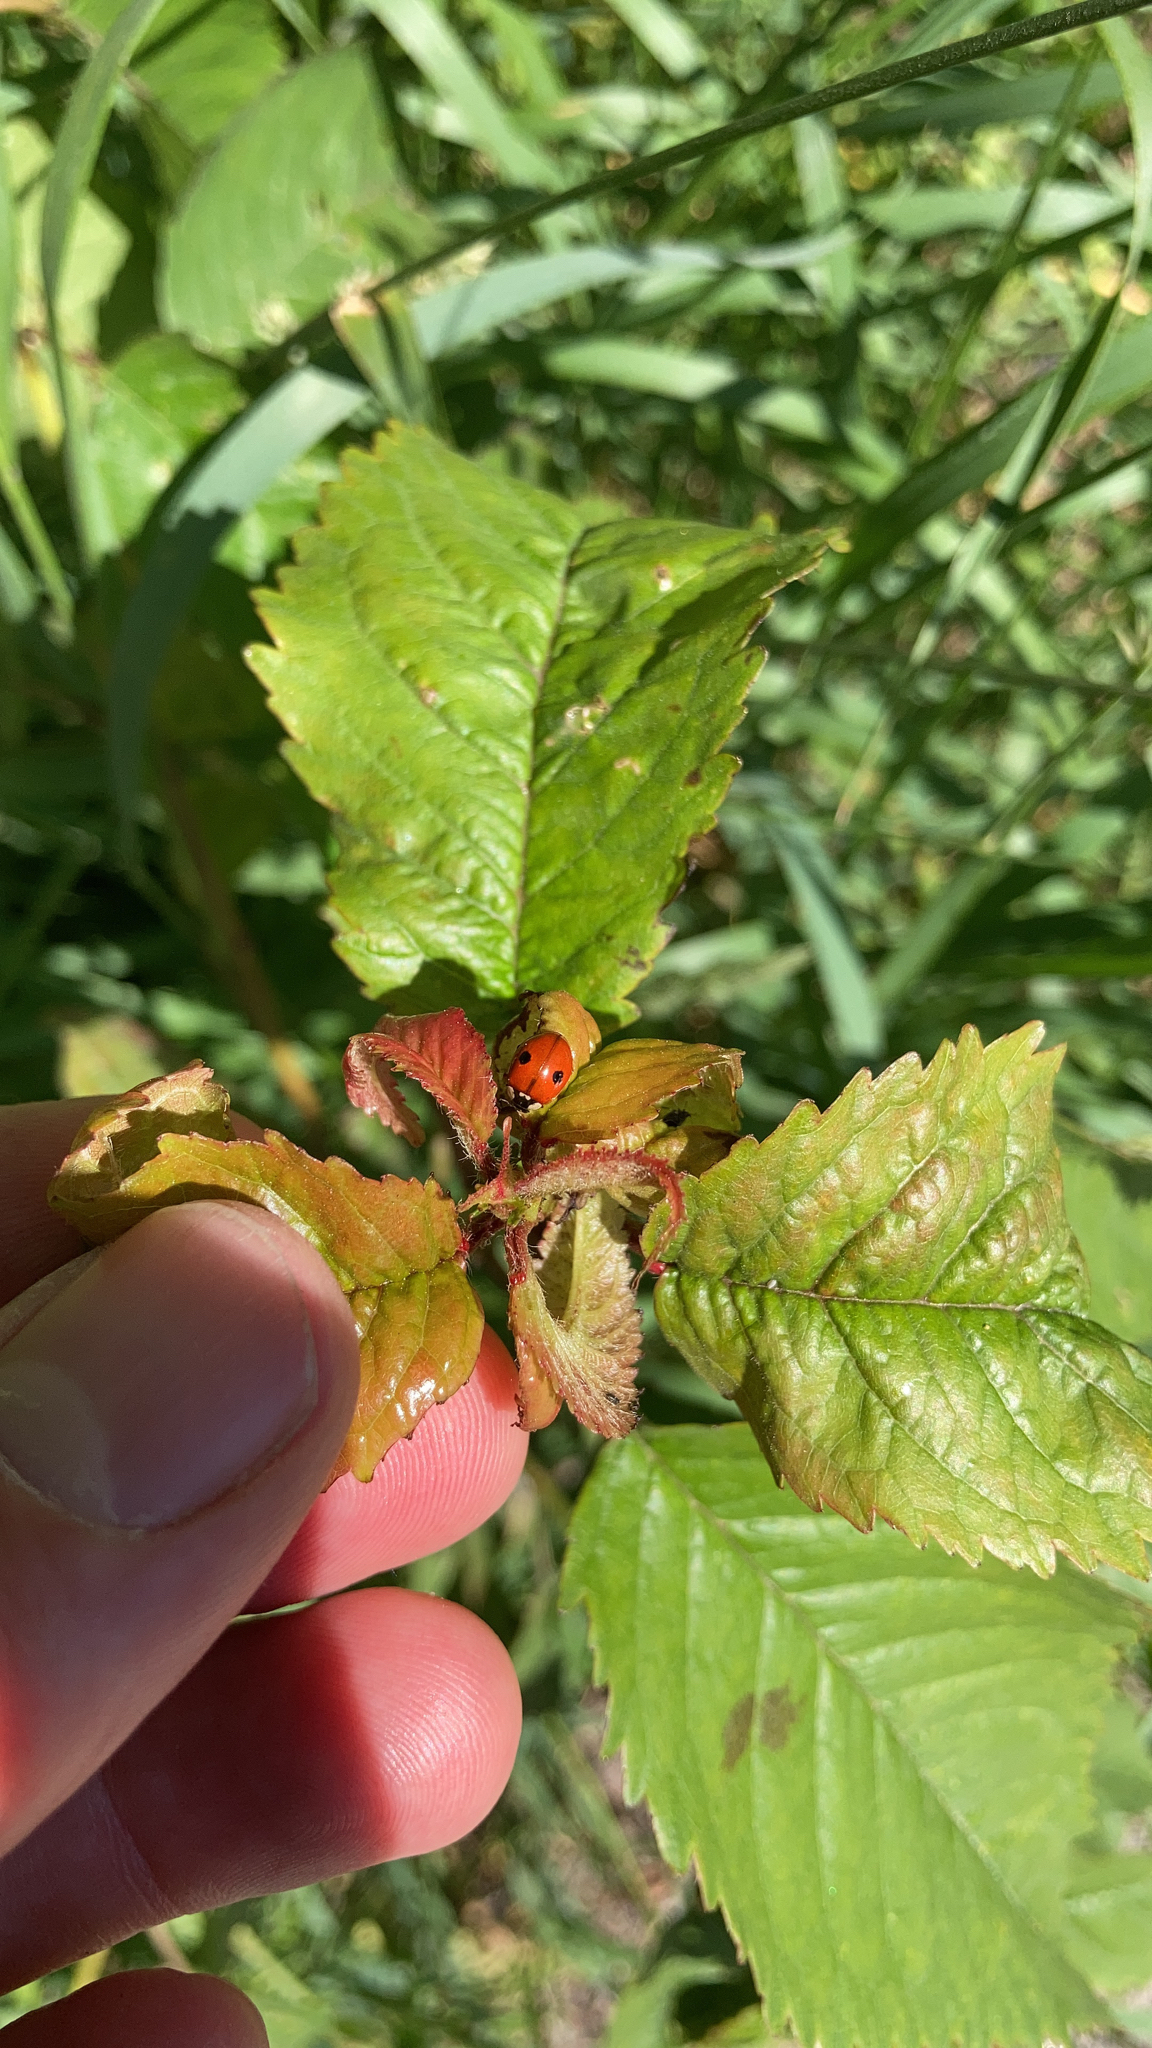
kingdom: Animalia
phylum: Arthropoda
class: Insecta
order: Coleoptera
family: Coccinellidae
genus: Adalia
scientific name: Adalia bipunctata
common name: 2-spot ladybird
